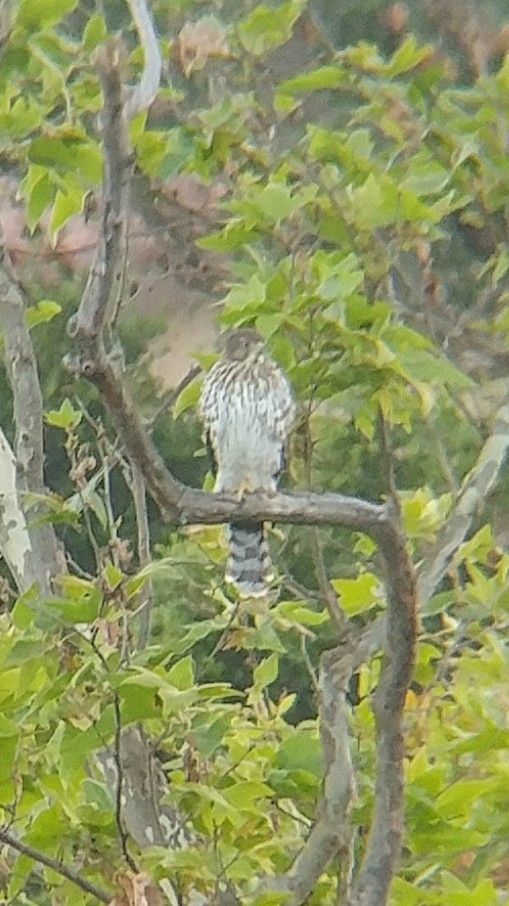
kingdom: Animalia
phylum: Chordata
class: Aves
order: Accipitriformes
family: Accipitridae
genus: Accipiter
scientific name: Accipiter cooperii
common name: Cooper's hawk
